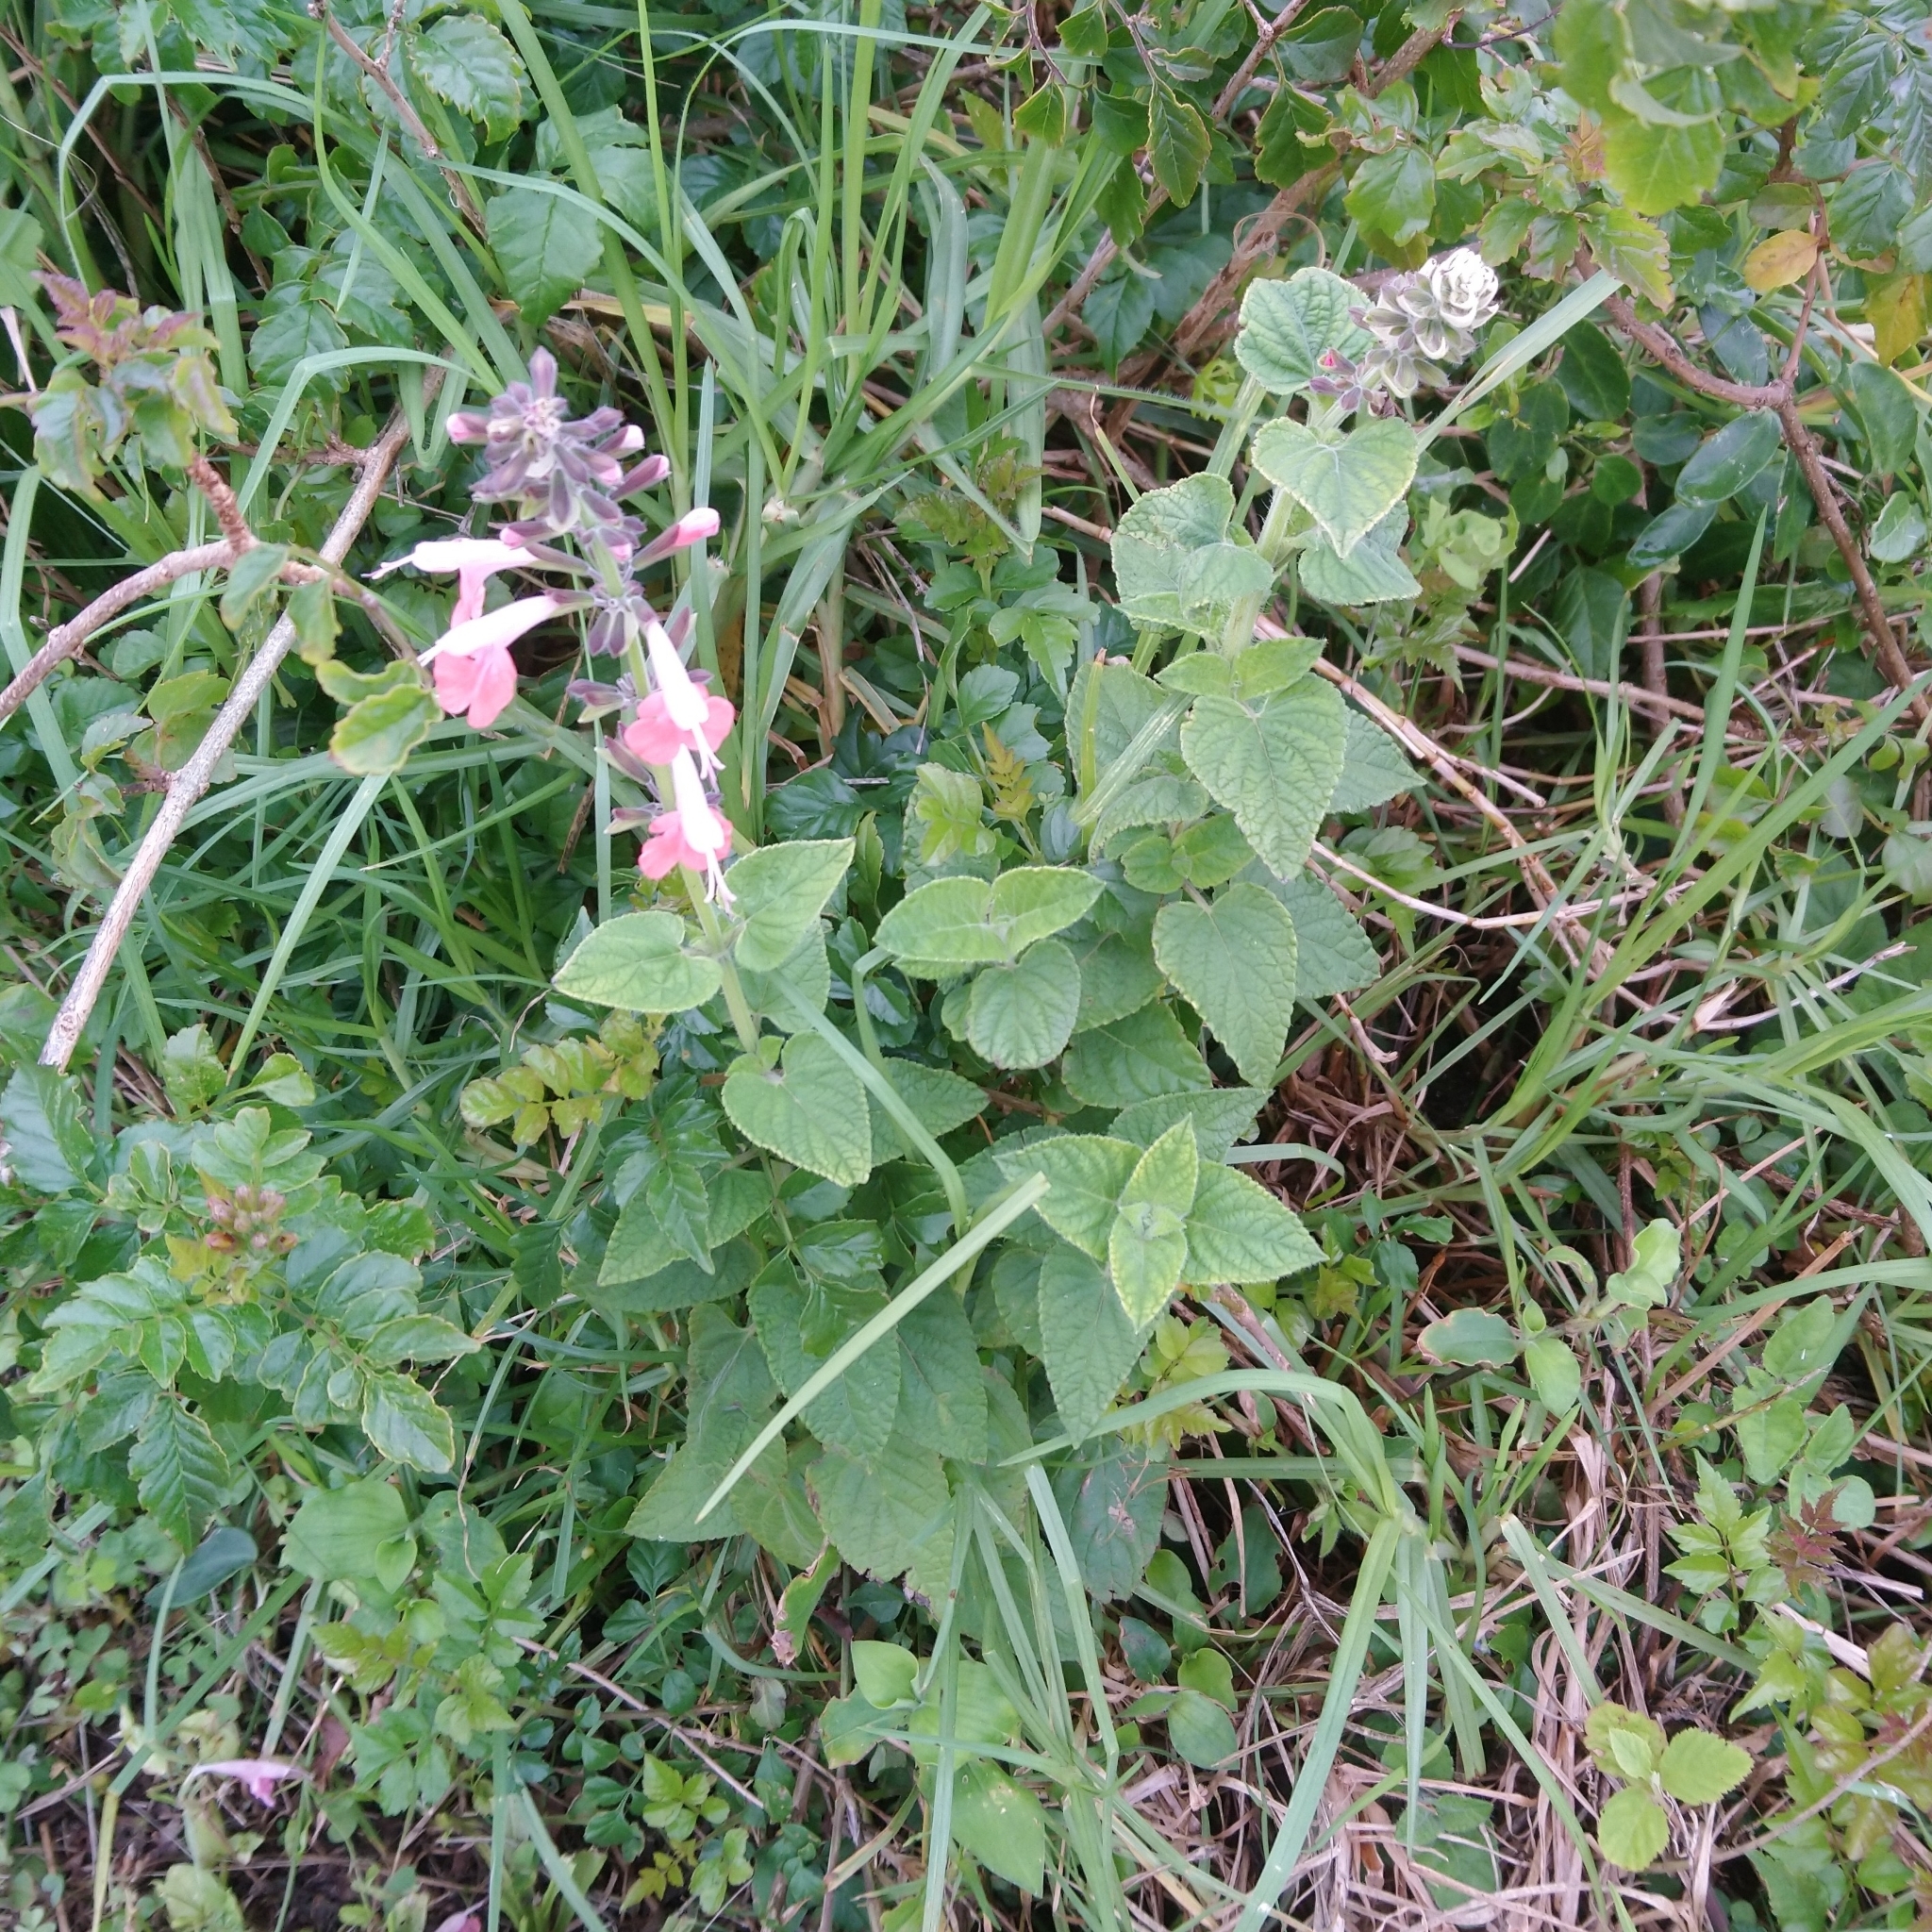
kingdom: Plantae
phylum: Tracheophyta
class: Magnoliopsida
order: Lamiales
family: Lamiaceae
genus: Salvia
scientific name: Salvia coccinea
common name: Blood sage
